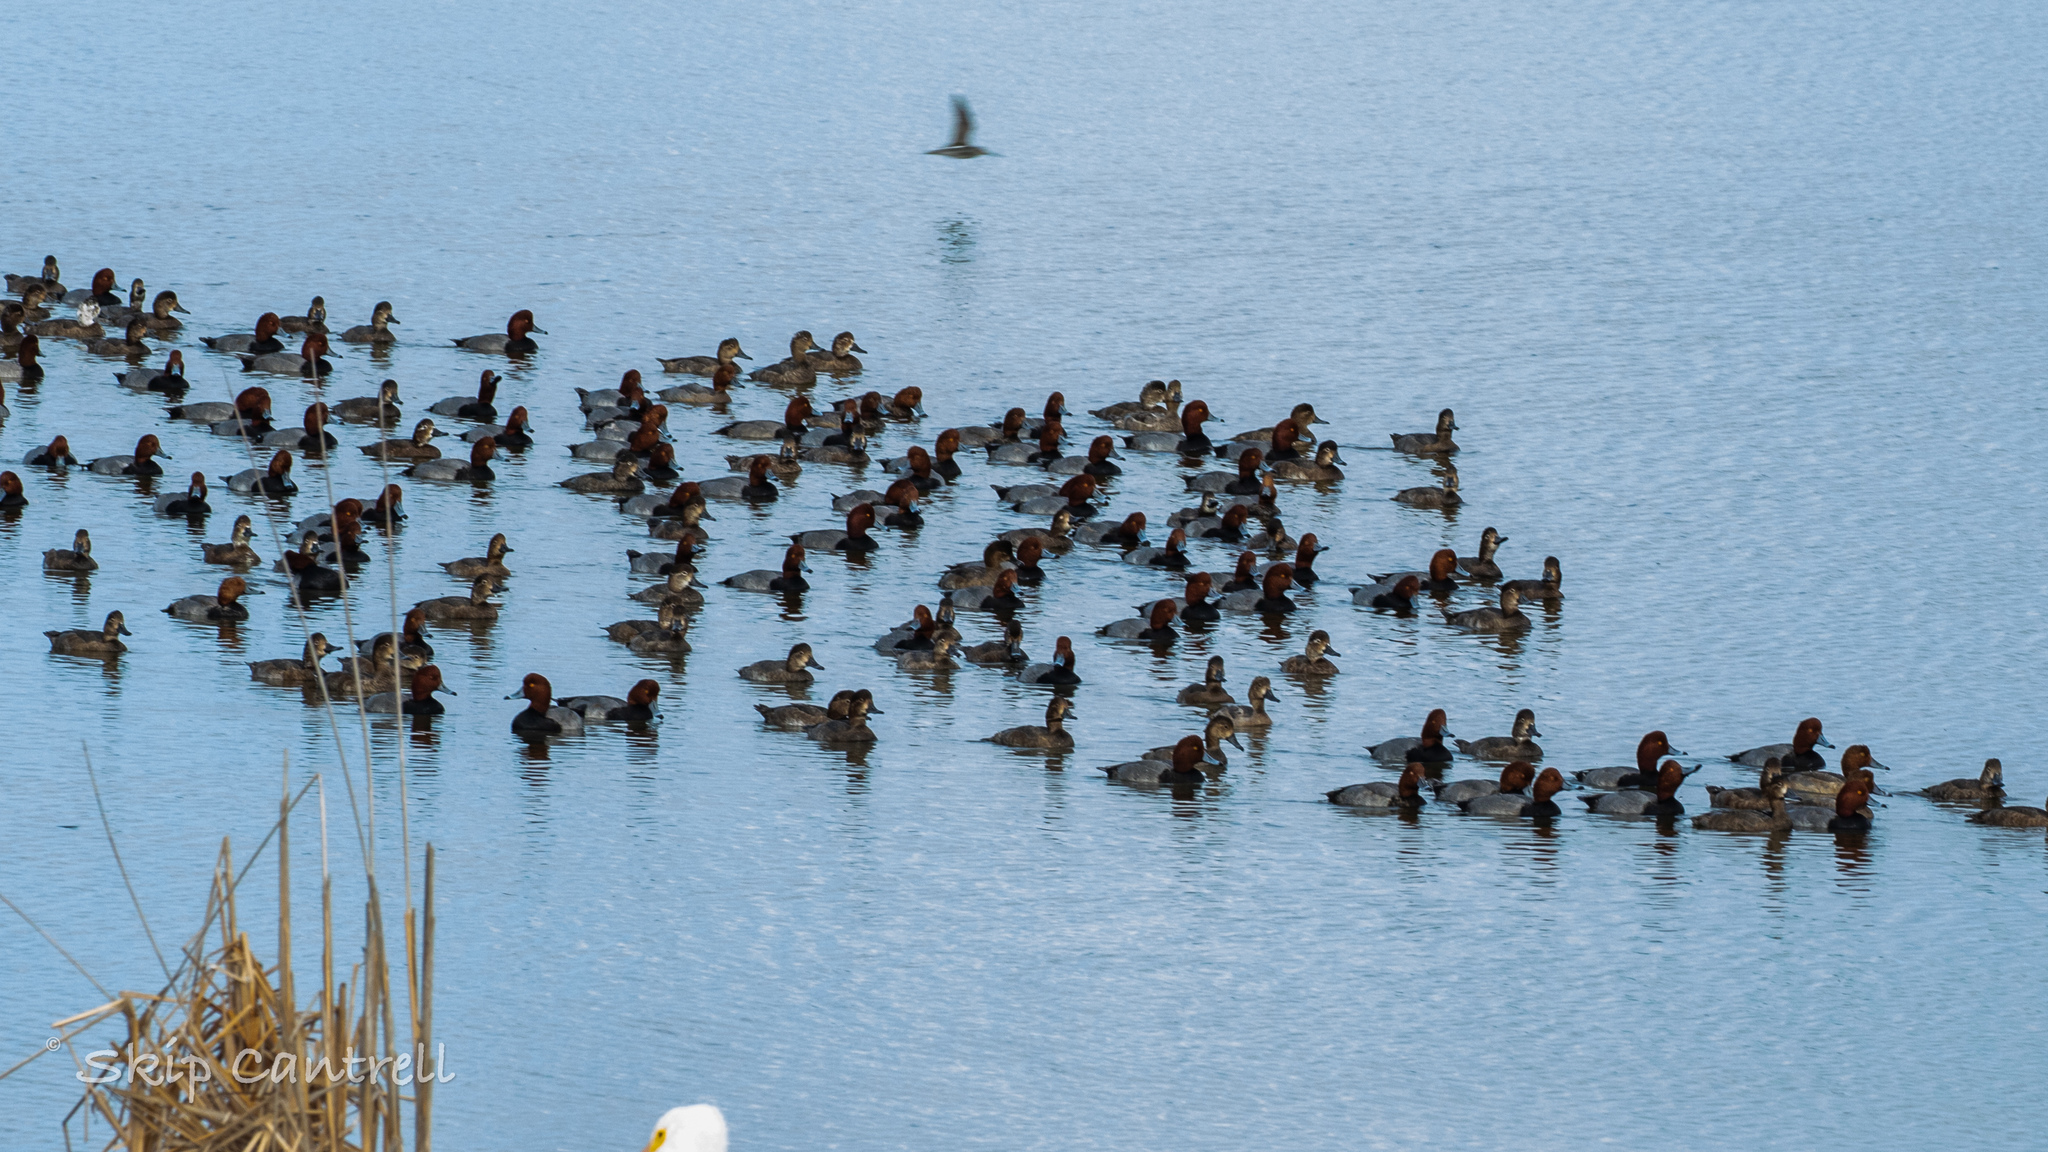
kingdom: Animalia
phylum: Chordata
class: Aves
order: Anseriformes
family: Anatidae
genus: Aythya
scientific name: Aythya americana
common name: Redhead
